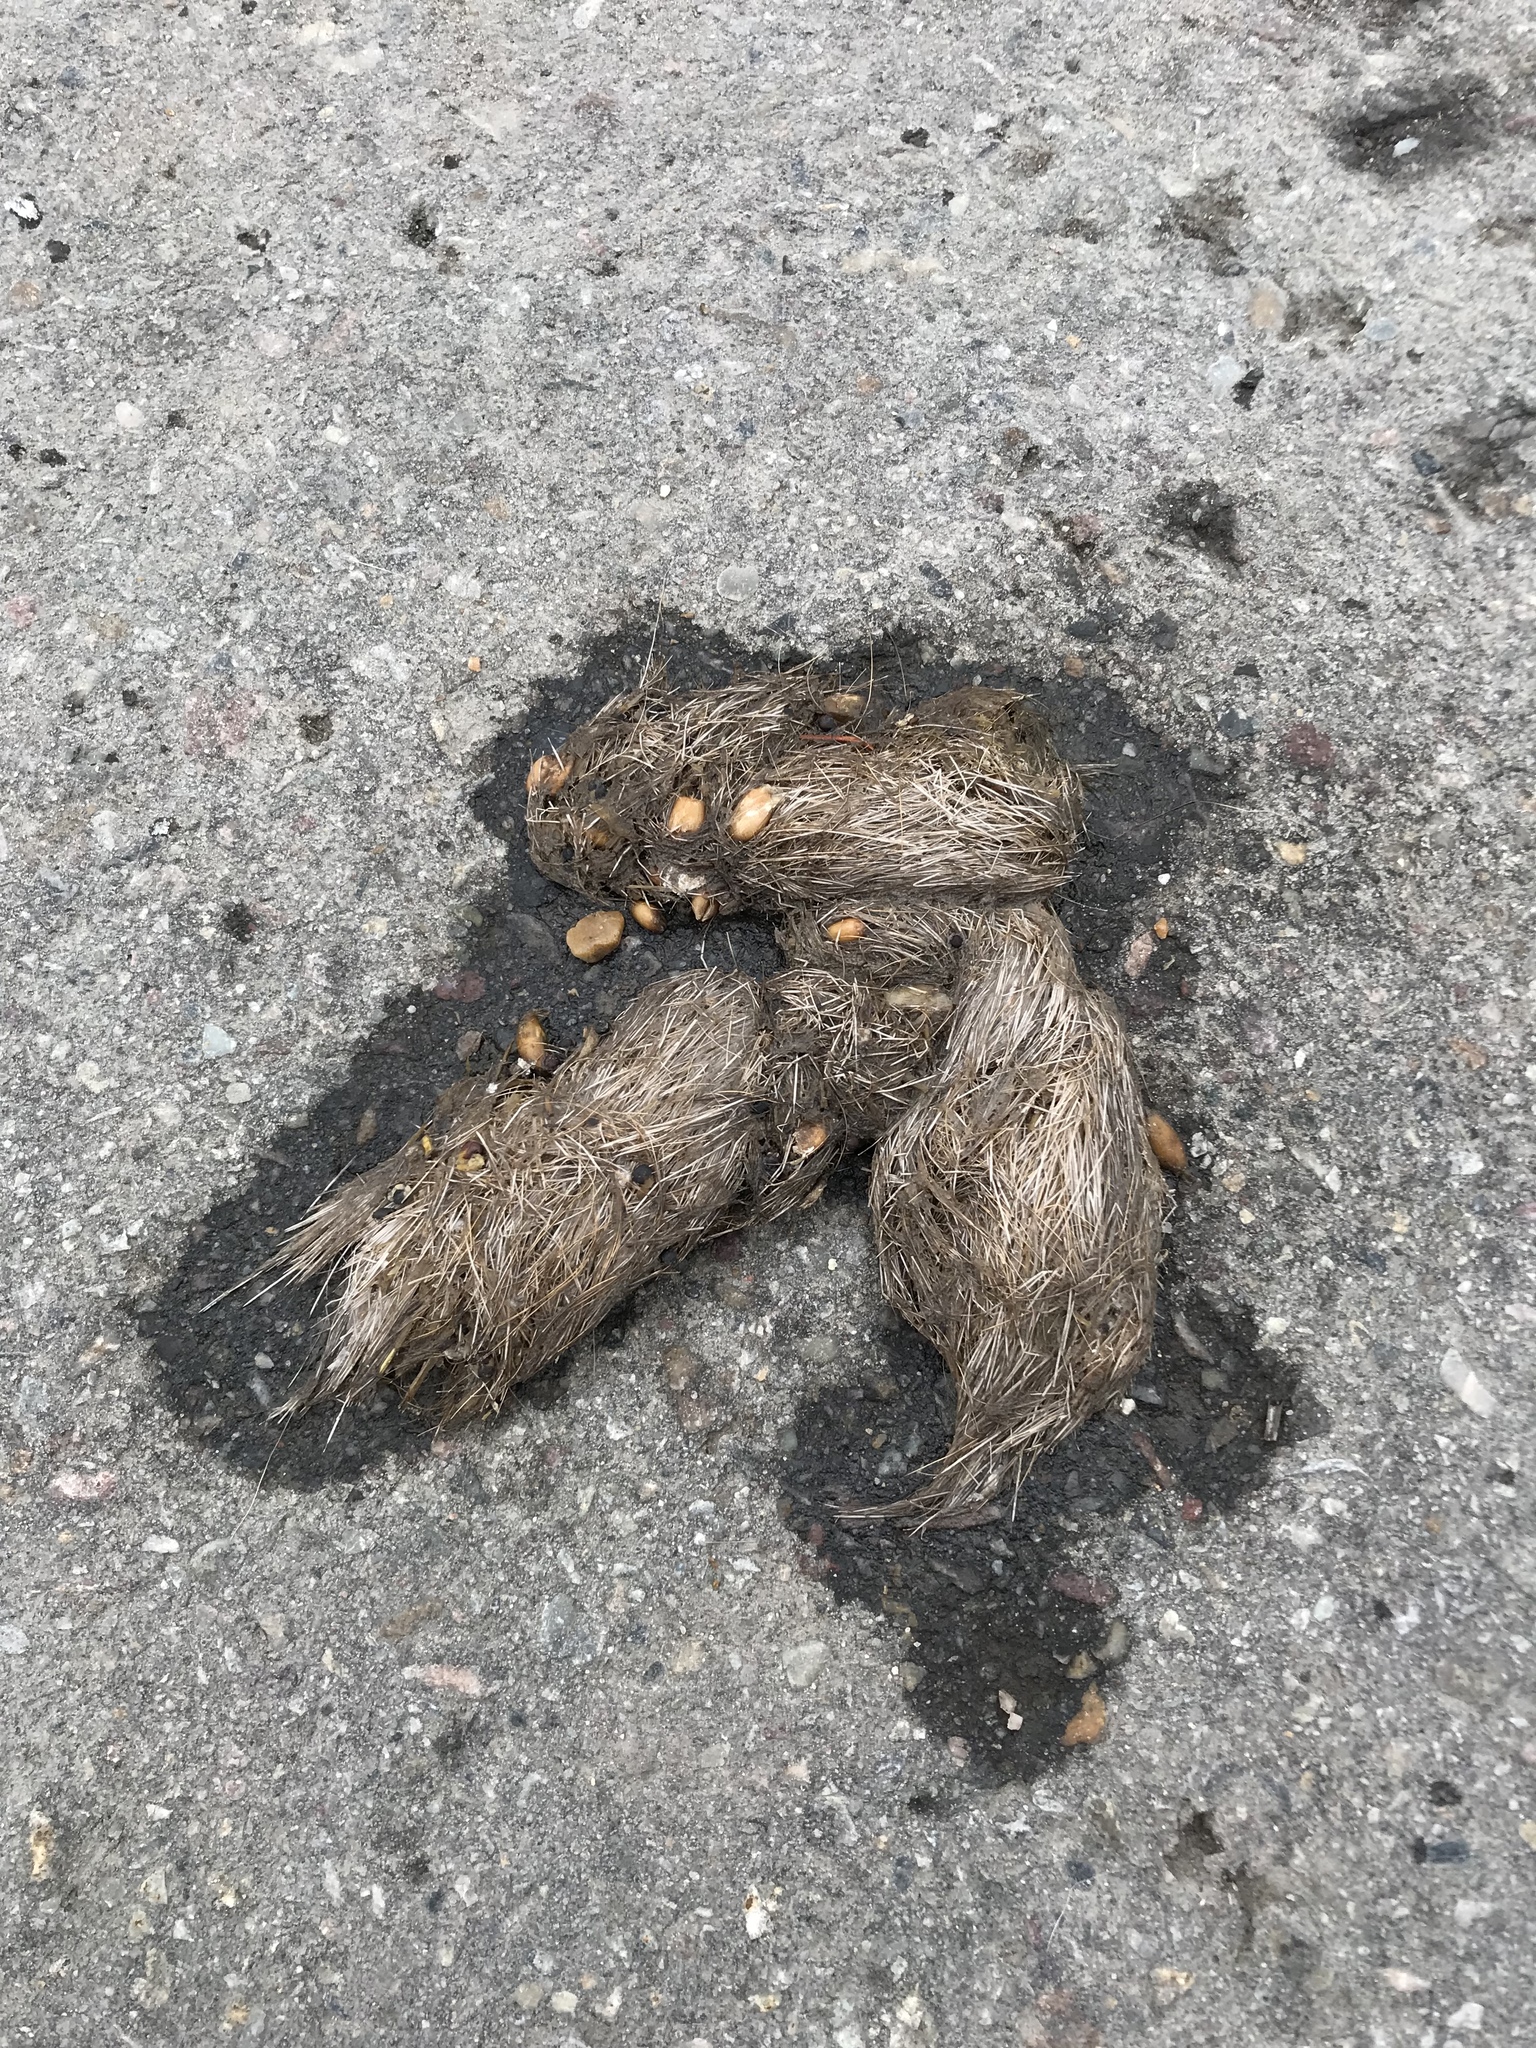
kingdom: Animalia
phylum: Chordata
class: Mammalia
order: Carnivora
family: Canidae
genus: Canis
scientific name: Canis lupus
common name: Gray wolf
